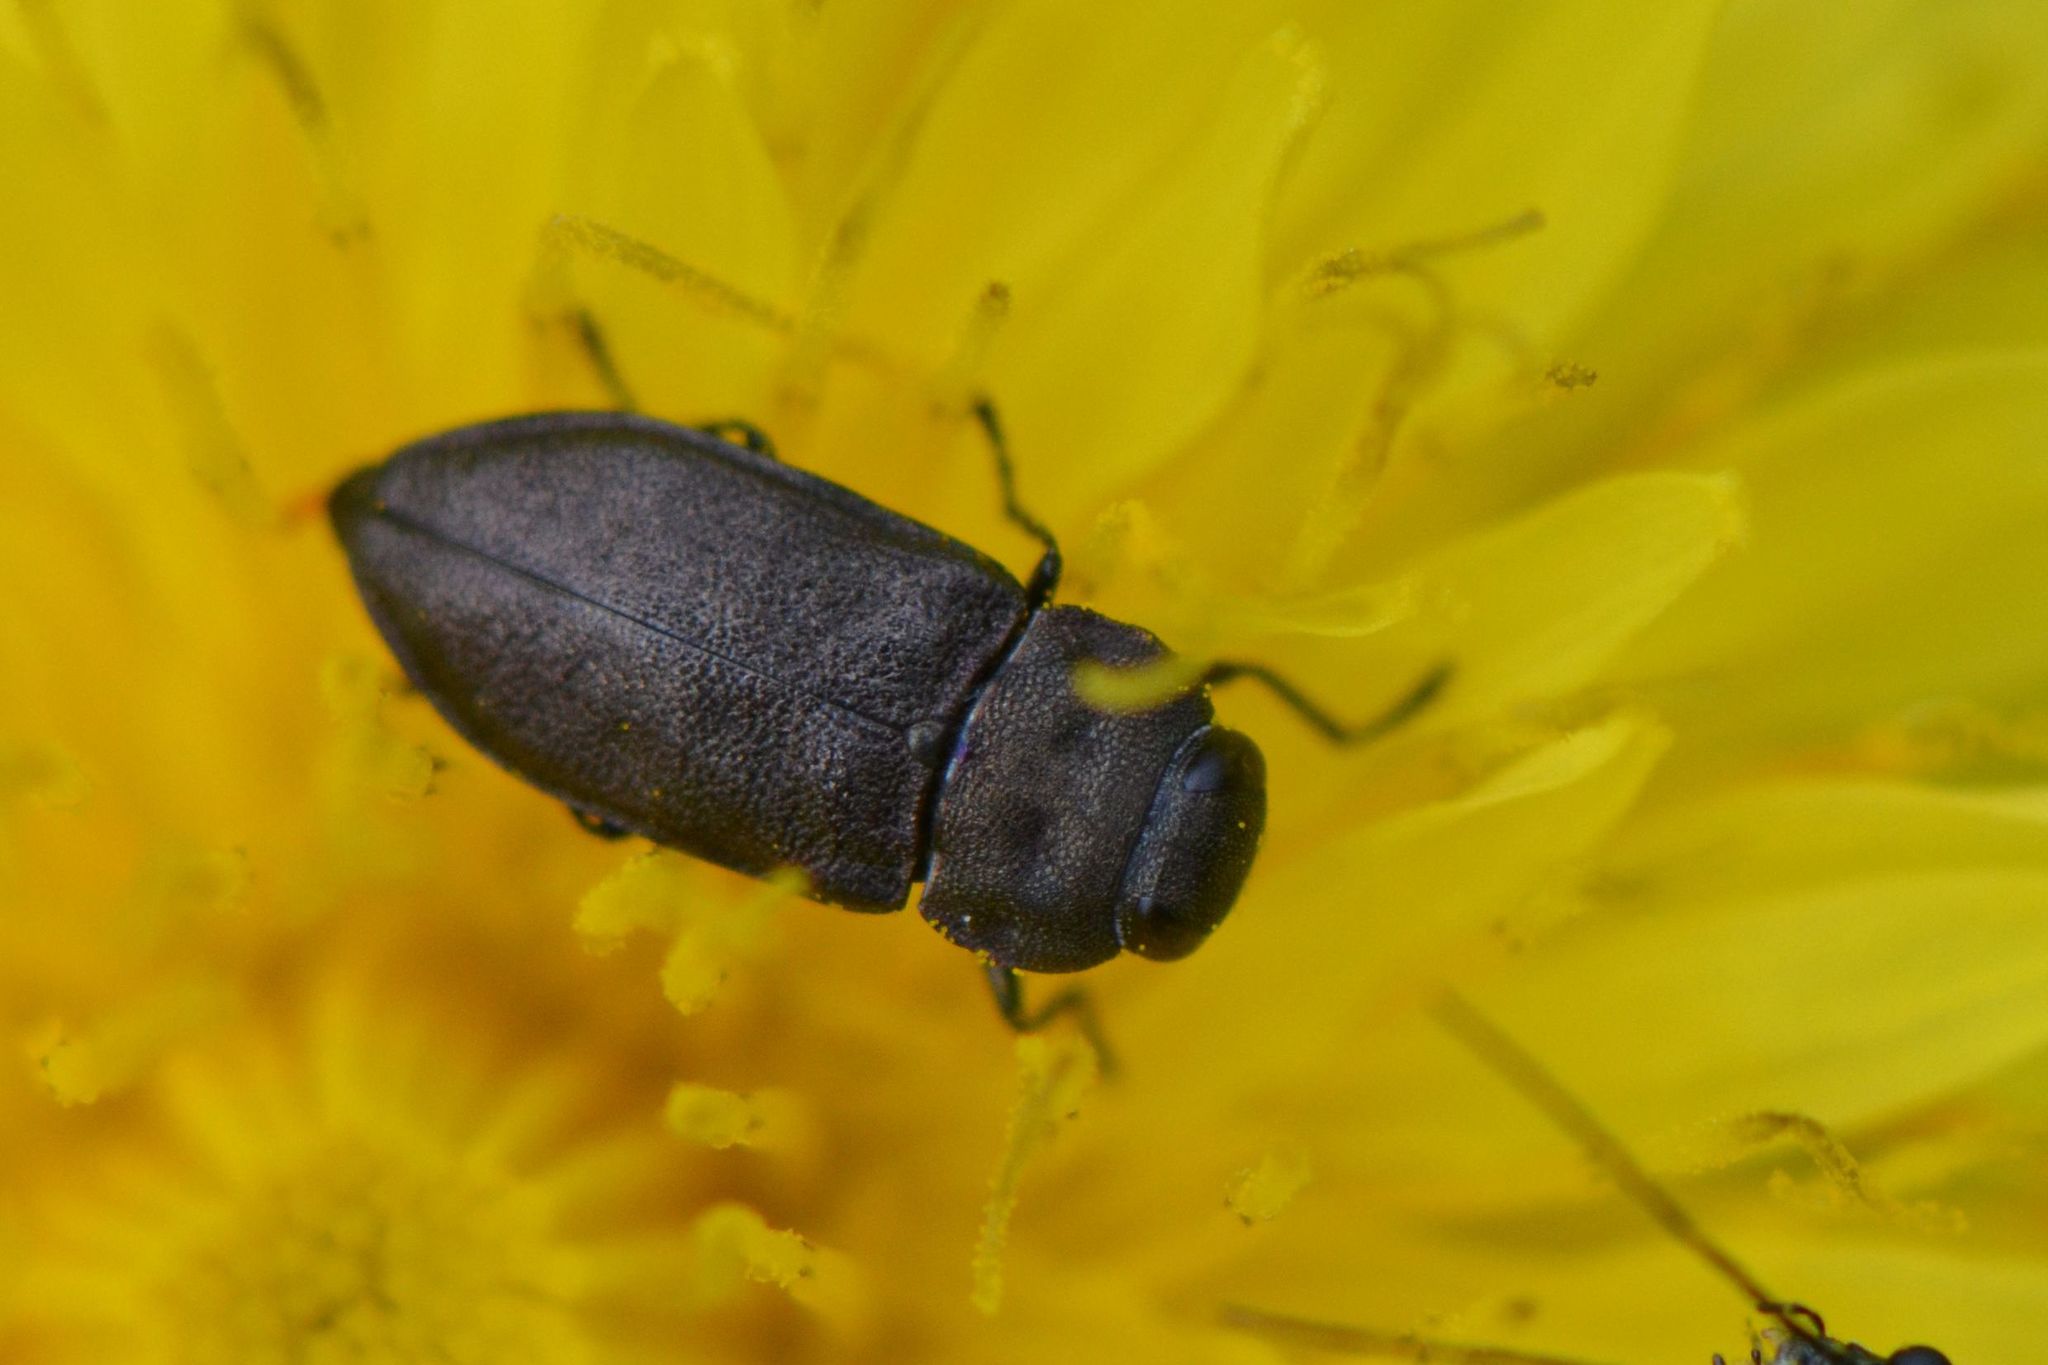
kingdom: Animalia
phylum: Arthropoda
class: Insecta
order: Coleoptera
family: Buprestidae
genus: Anthaxia
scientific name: Anthaxia quadripunctata
